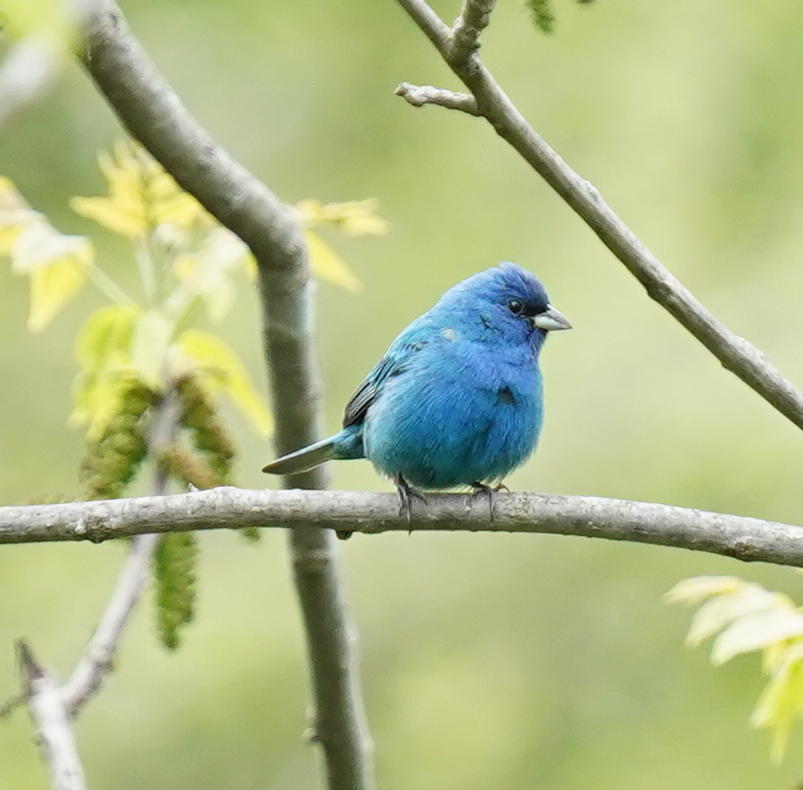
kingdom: Animalia
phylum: Chordata
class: Aves
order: Passeriformes
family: Cardinalidae
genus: Passerina
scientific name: Passerina cyanea
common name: Indigo bunting
